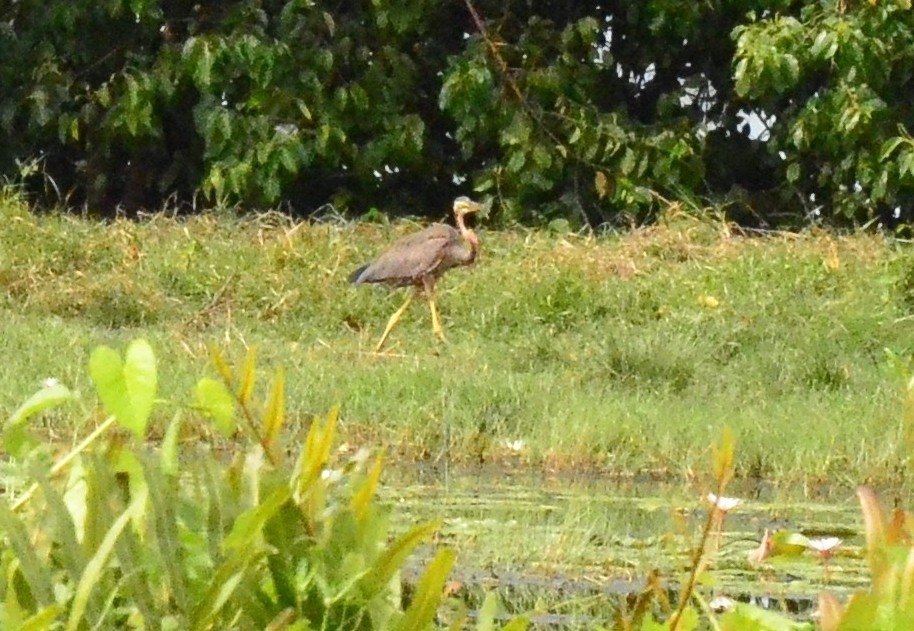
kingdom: Animalia
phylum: Chordata
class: Aves
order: Pelecaniformes
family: Ardeidae
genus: Ardea
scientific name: Ardea purpurea
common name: Purple heron
